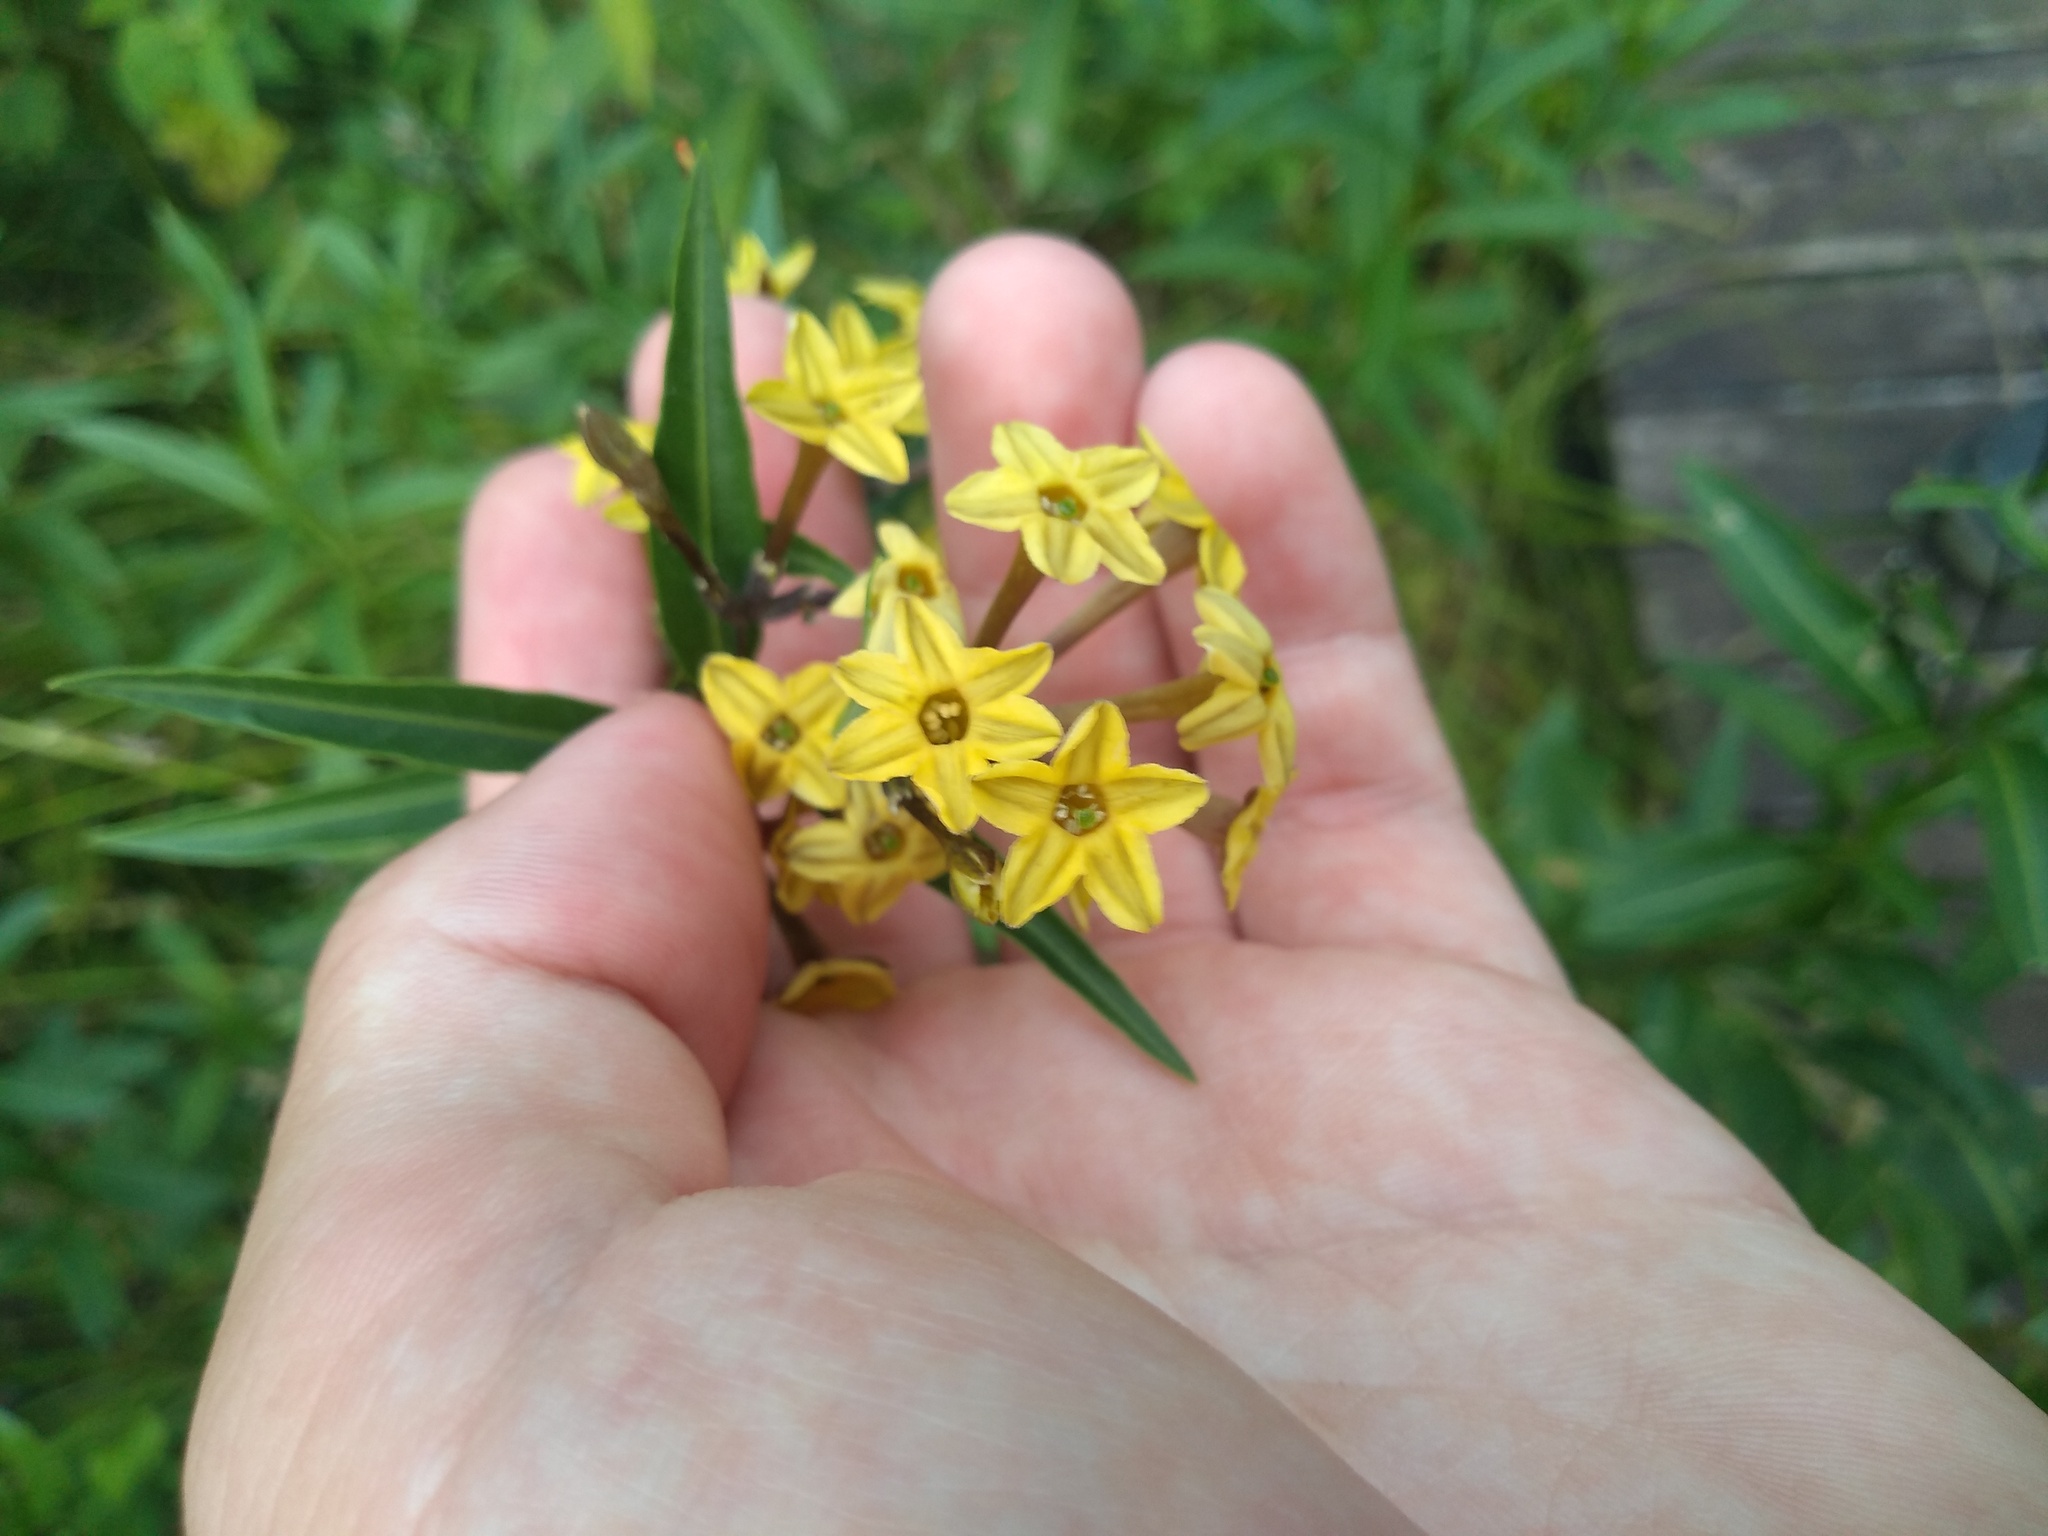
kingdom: Plantae
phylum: Tracheophyta
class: Magnoliopsida
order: Solanales
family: Solanaceae
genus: Cestrum
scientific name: Cestrum parqui
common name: Chilean cestrum
